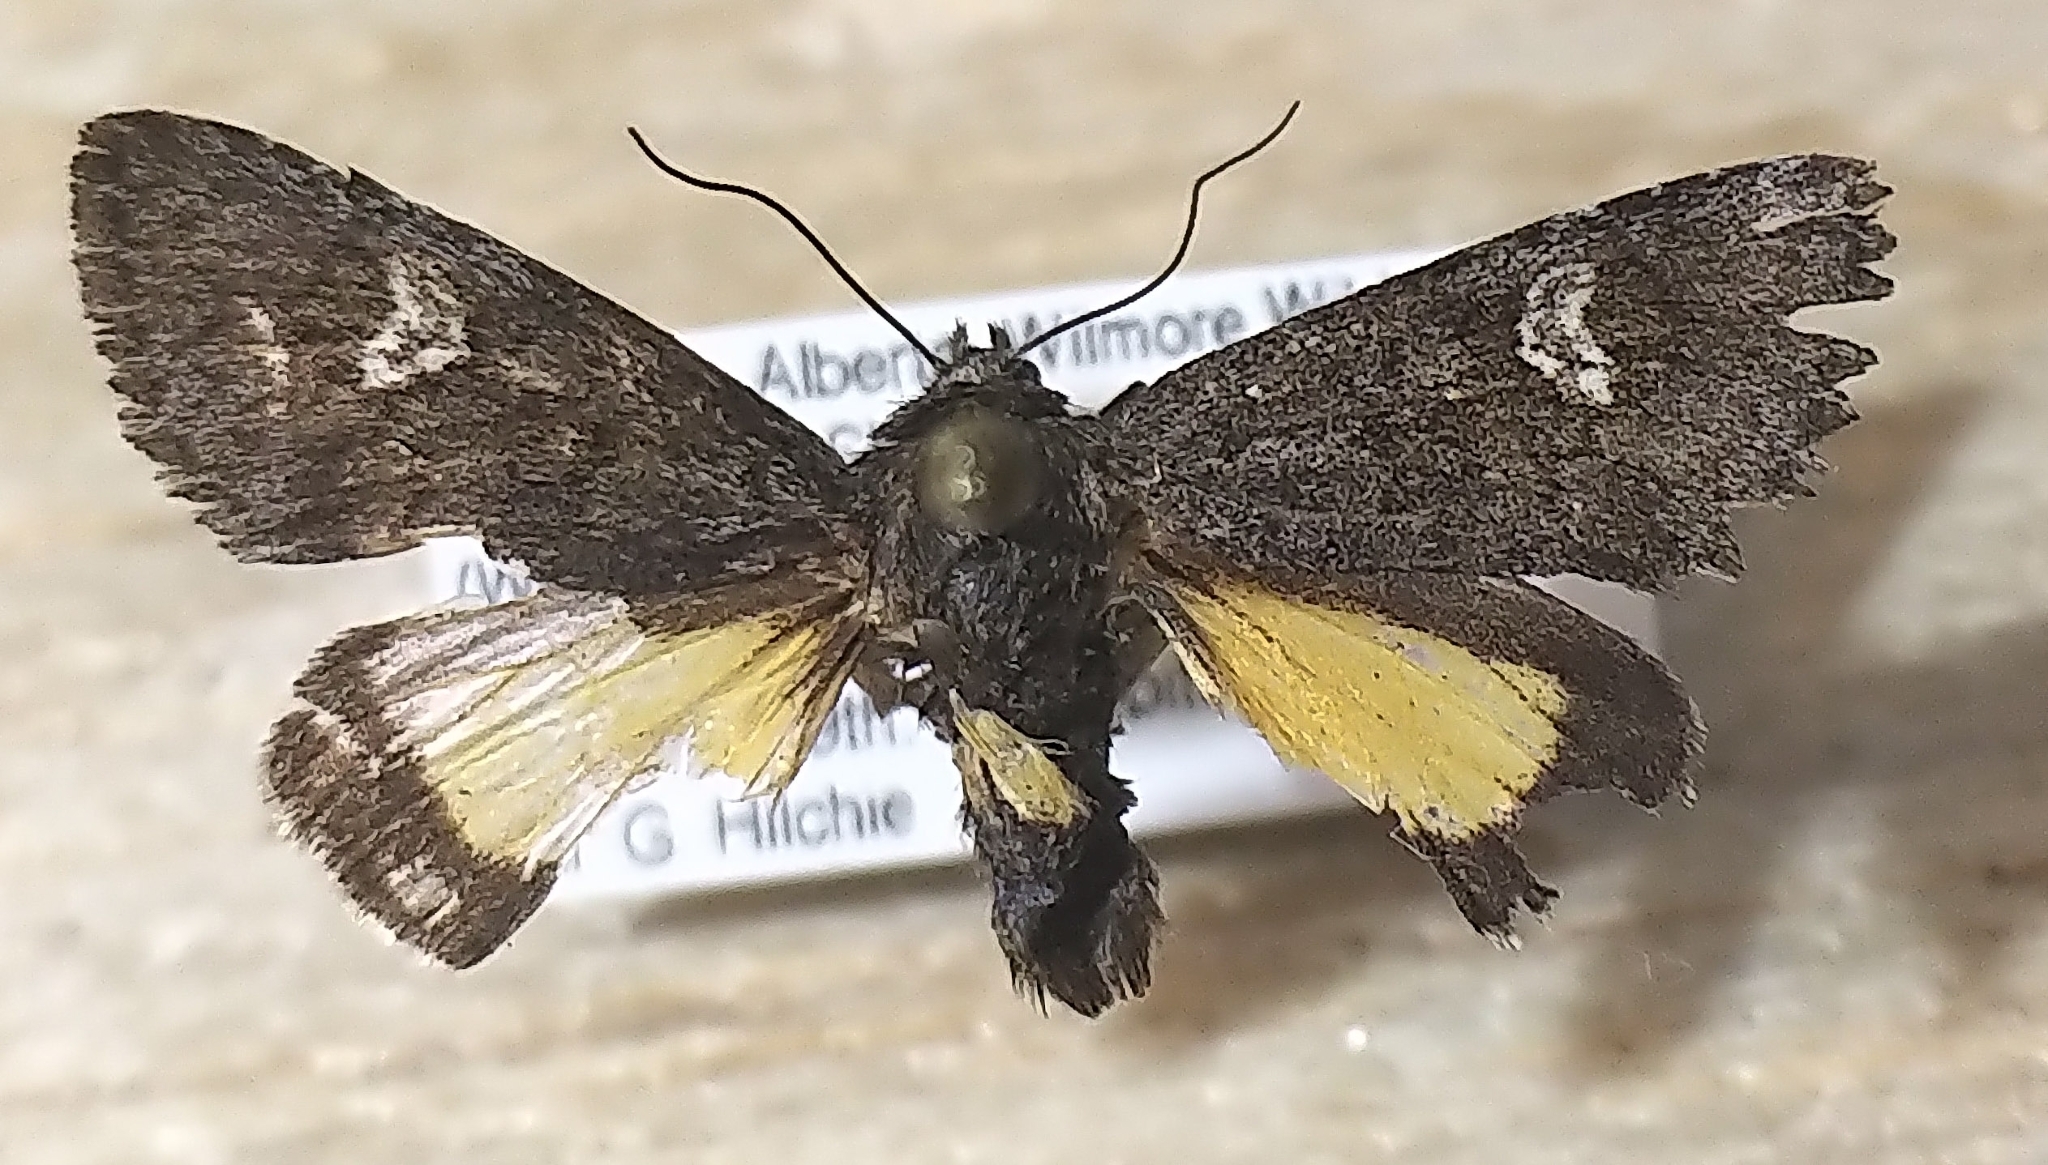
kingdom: Animalia
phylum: Arthropoda
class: Insecta
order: Lepidoptera
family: Noctuidae
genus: Coranarta
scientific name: Coranarta luteola
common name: Small dark yellow underwing
